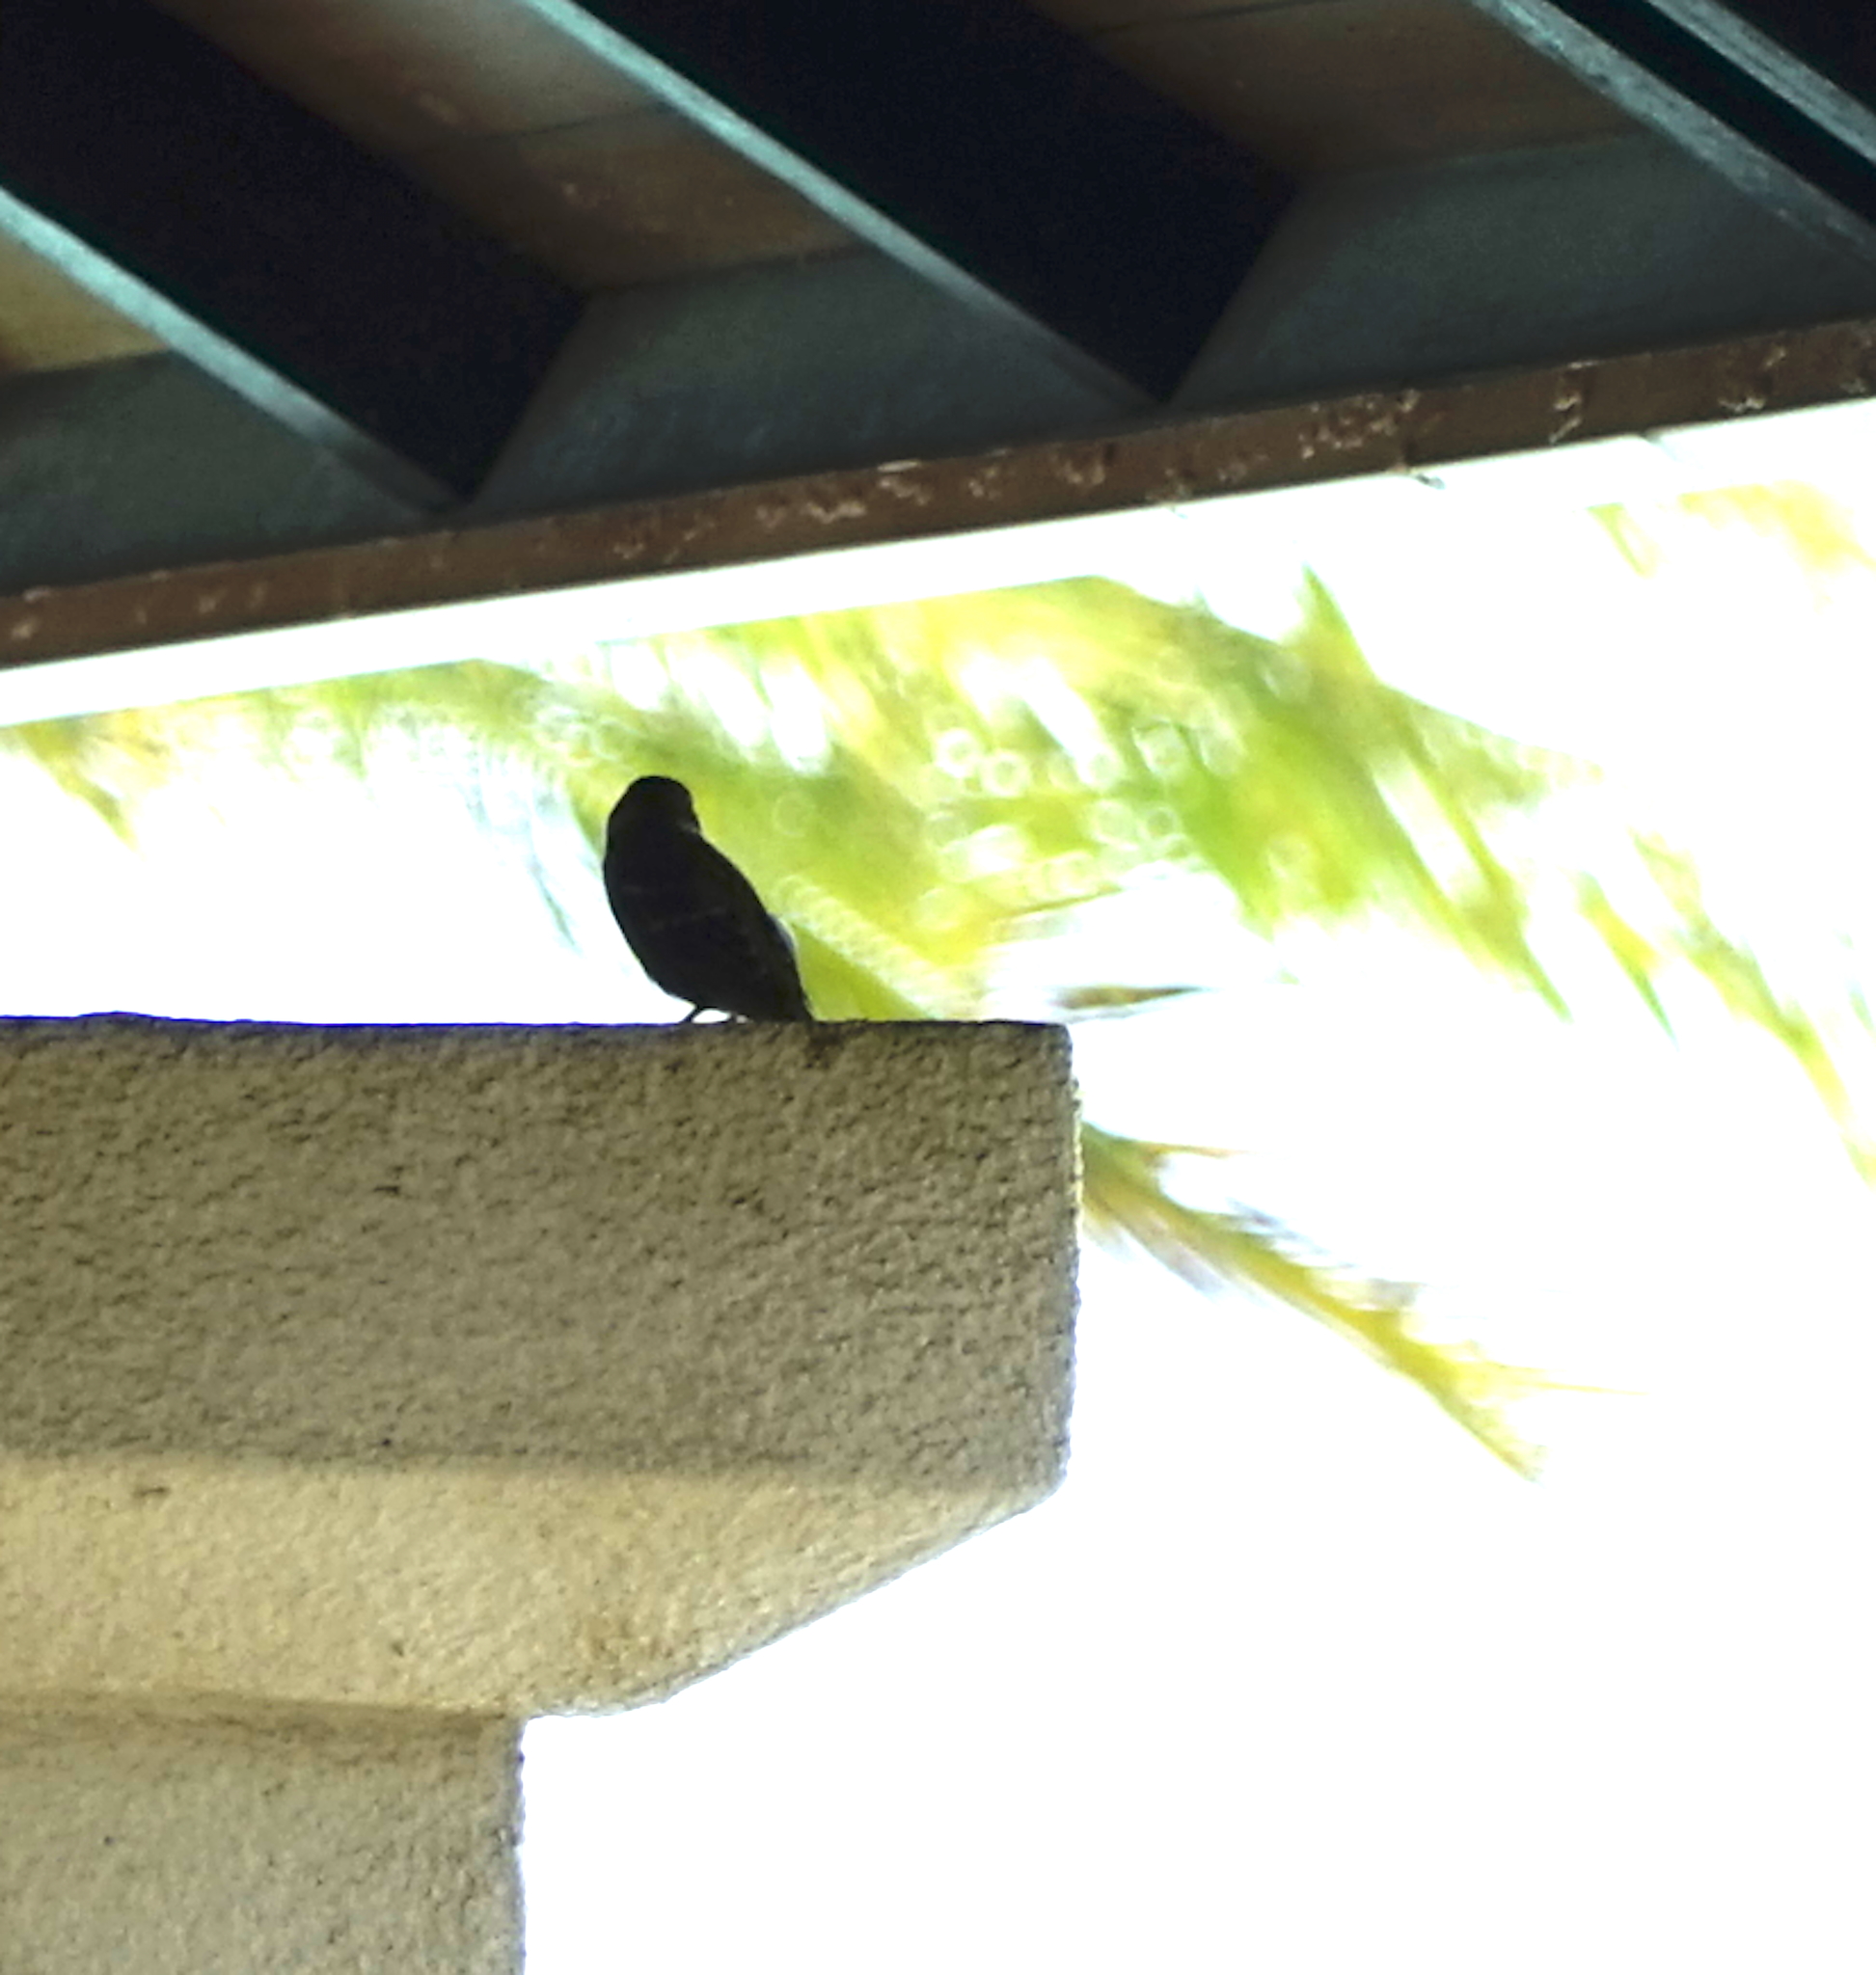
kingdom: Animalia
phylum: Chordata
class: Aves
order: Passeriformes
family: Passeridae
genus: Passer
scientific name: Passer montanus
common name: Eurasian tree sparrow
